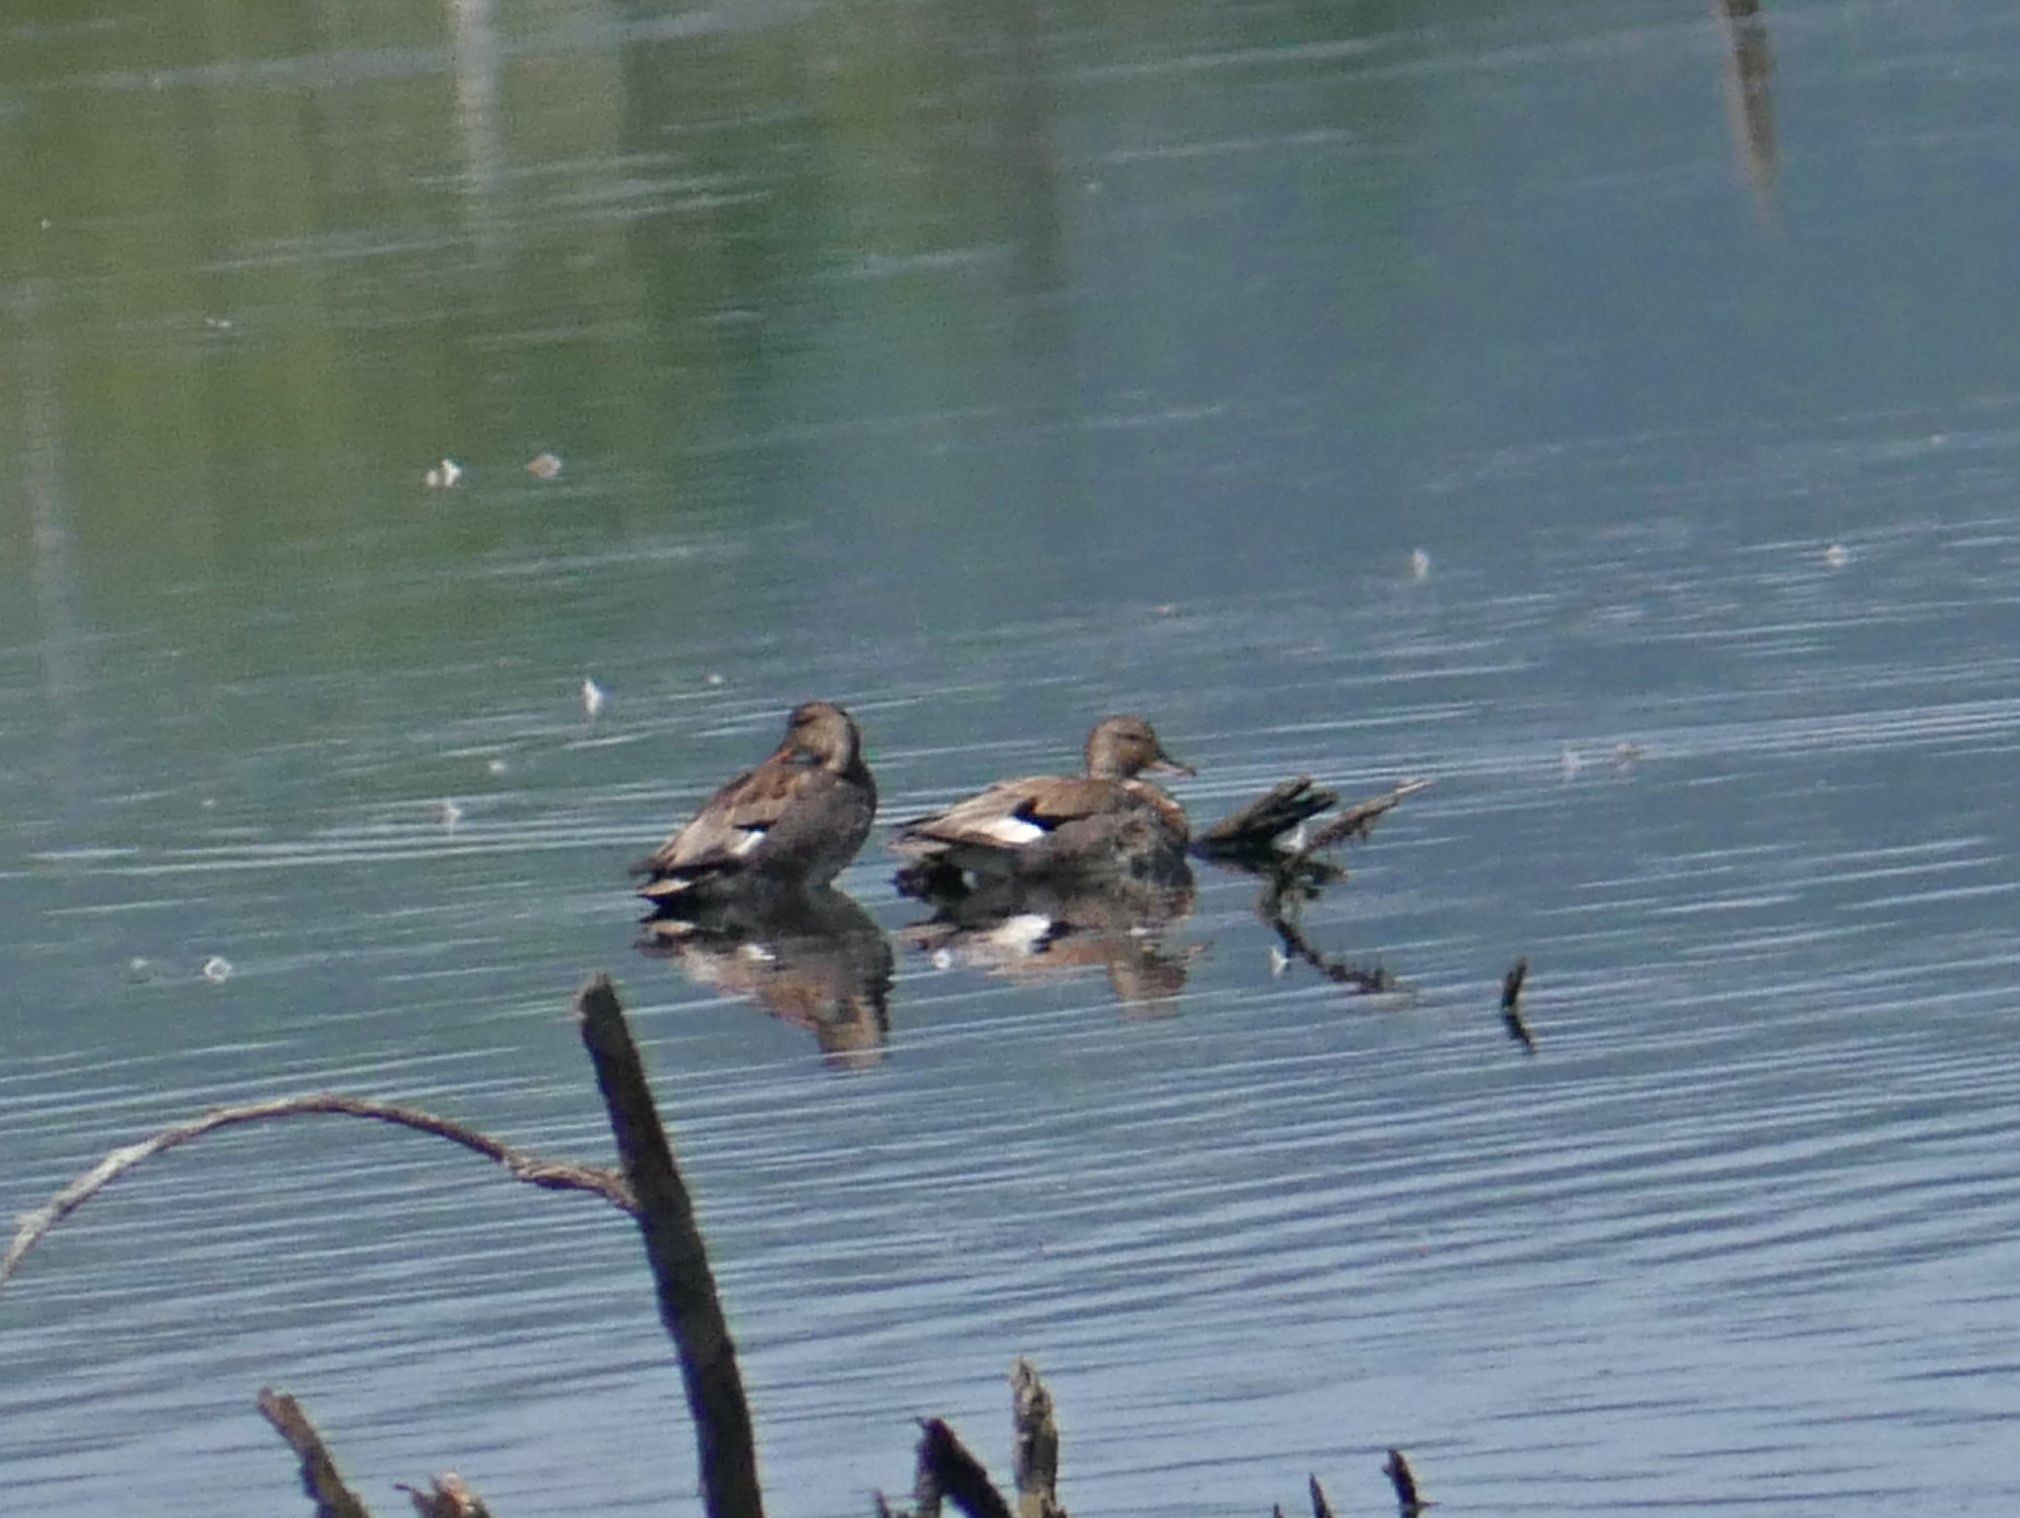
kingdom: Animalia
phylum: Chordata
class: Aves
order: Anseriformes
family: Anatidae
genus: Mareca
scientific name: Mareca strepera
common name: Gadwall
